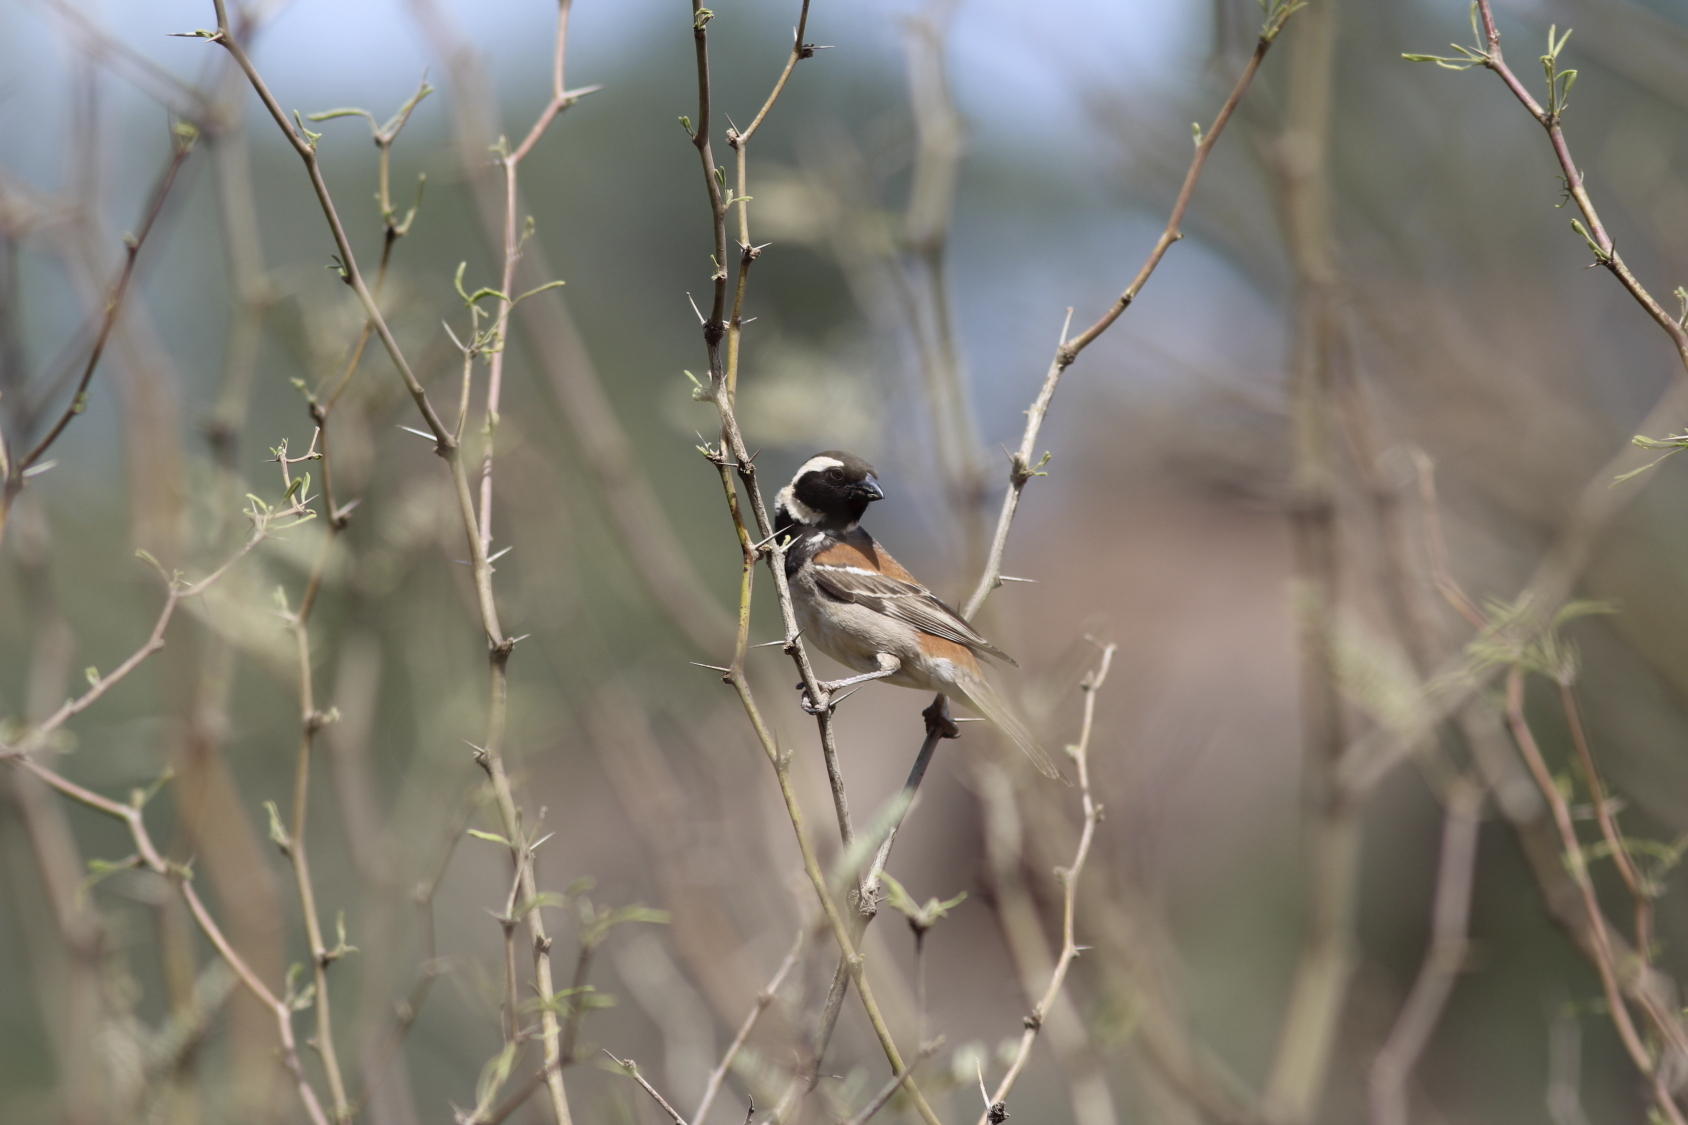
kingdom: Animalia
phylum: Chordata
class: Aves
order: Passeriformes
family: Passeridae
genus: Passer
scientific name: Passer melanurus
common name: Cape sparrow
